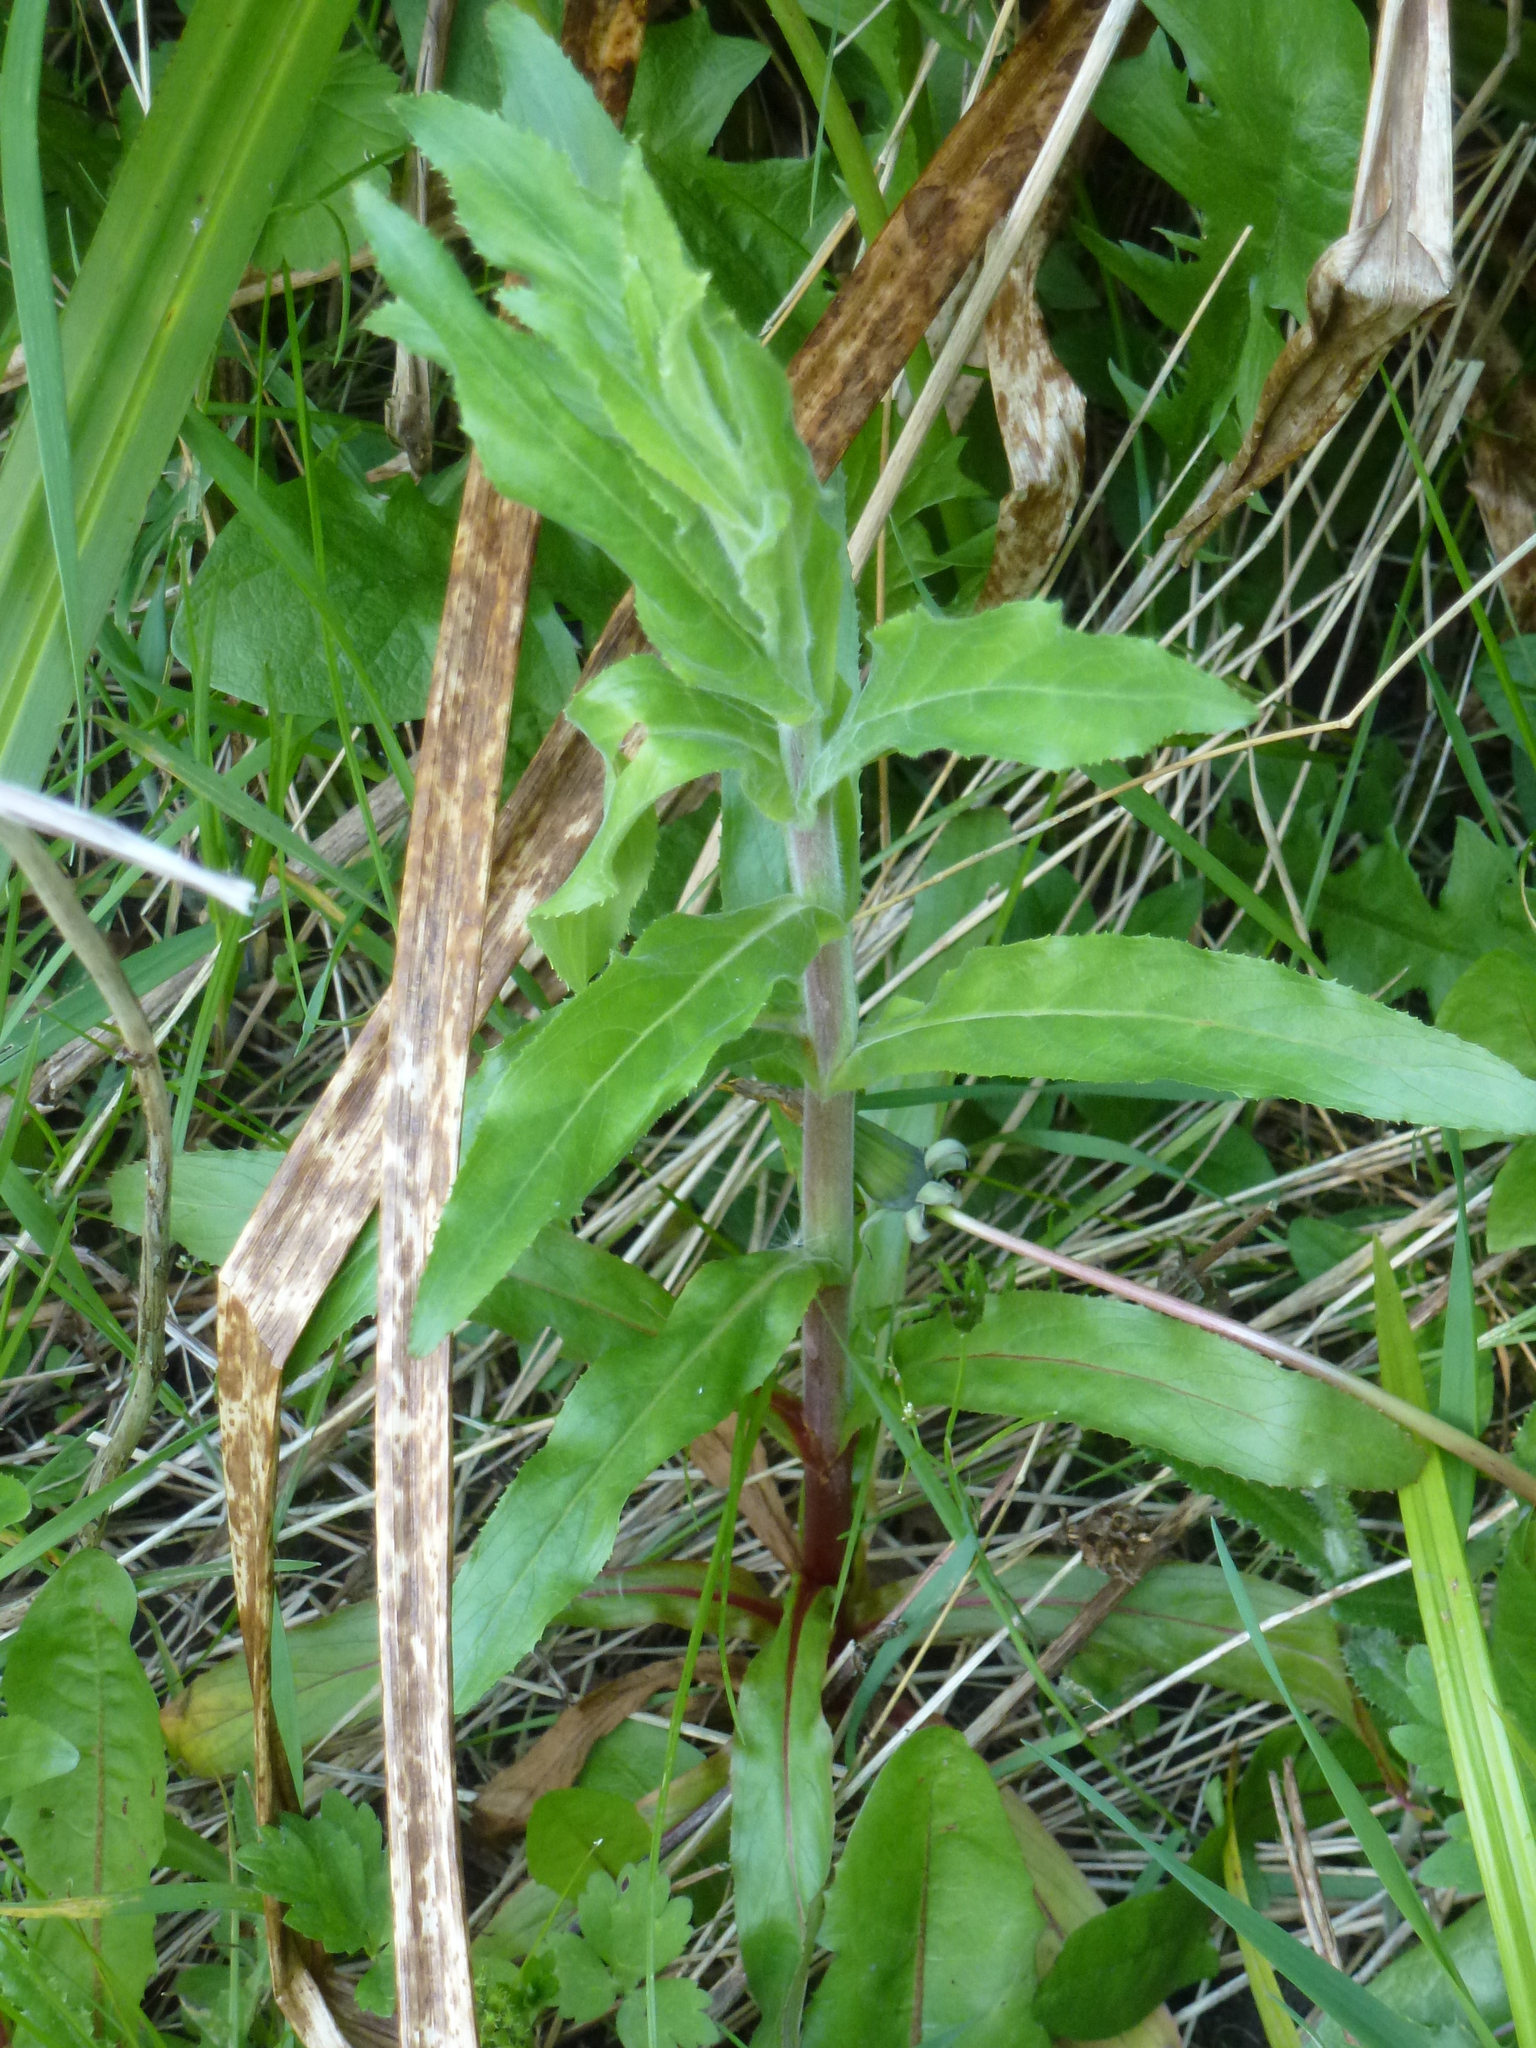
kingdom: Plantae
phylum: Tracheophyta
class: Magnoliopsida
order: Myrtales
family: Onagraceae
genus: Epilobium
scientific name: Epilobium hirsutum
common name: Great willowherb
